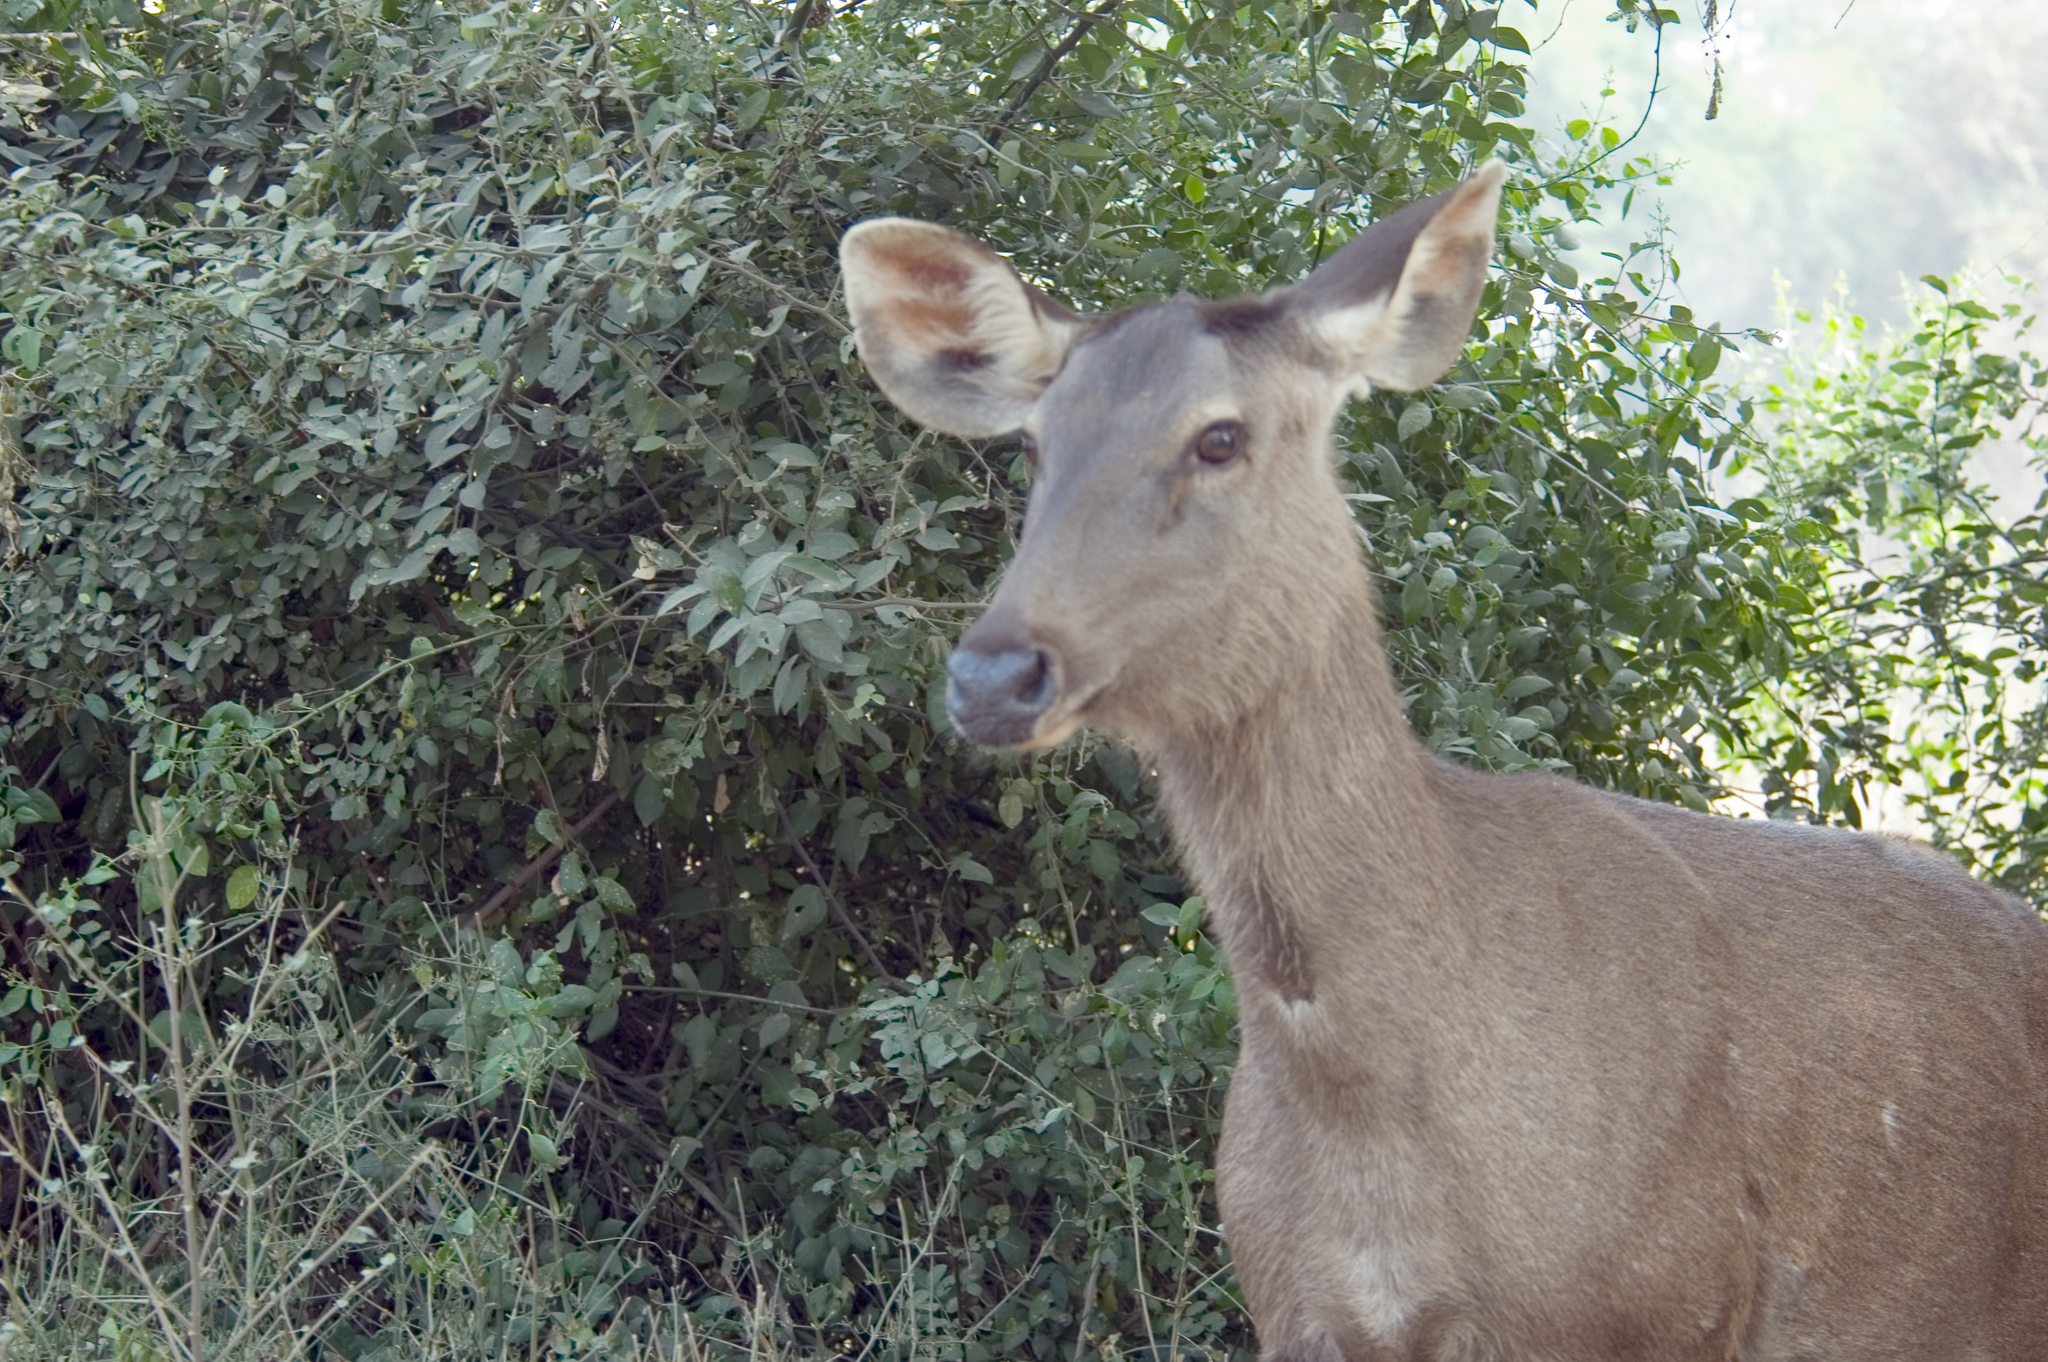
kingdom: Animalia
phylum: Chordata
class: Mammalia
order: Artiodactyla
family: Cervidae
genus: Rusa
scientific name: Rusa unicolor
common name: Sambar
